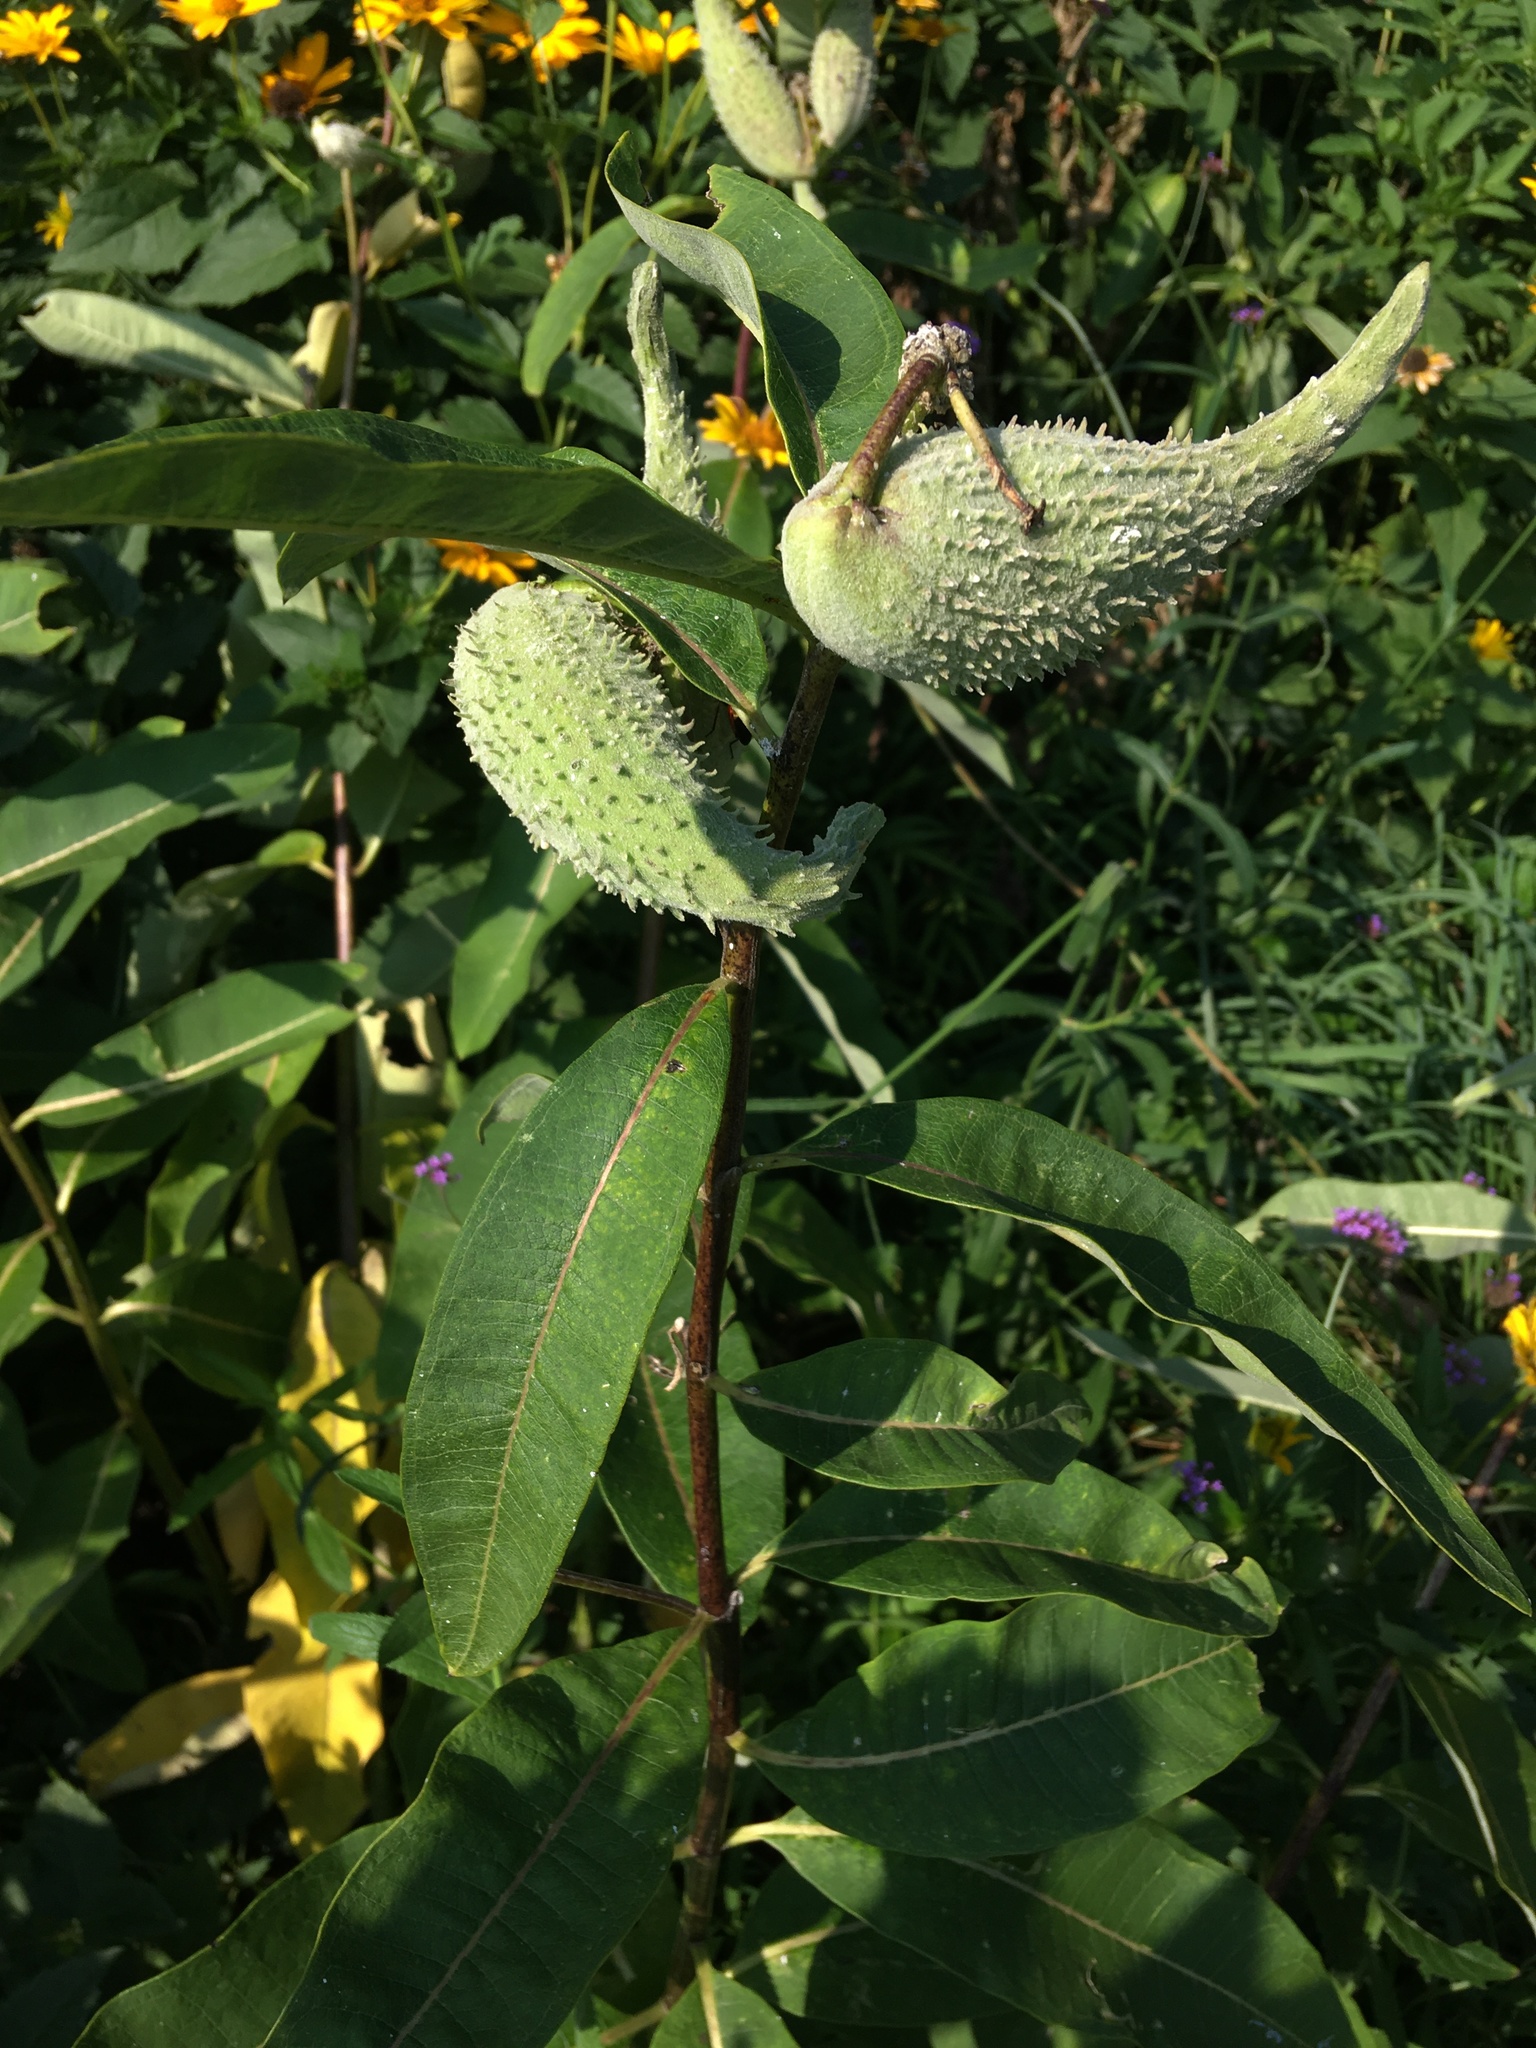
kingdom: Plantae
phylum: Tracheophyta
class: Magnoliopsida
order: Gentianales
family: Apocynaceae
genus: Asclepias
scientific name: Asclepias syriaca
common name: Common milkweed
